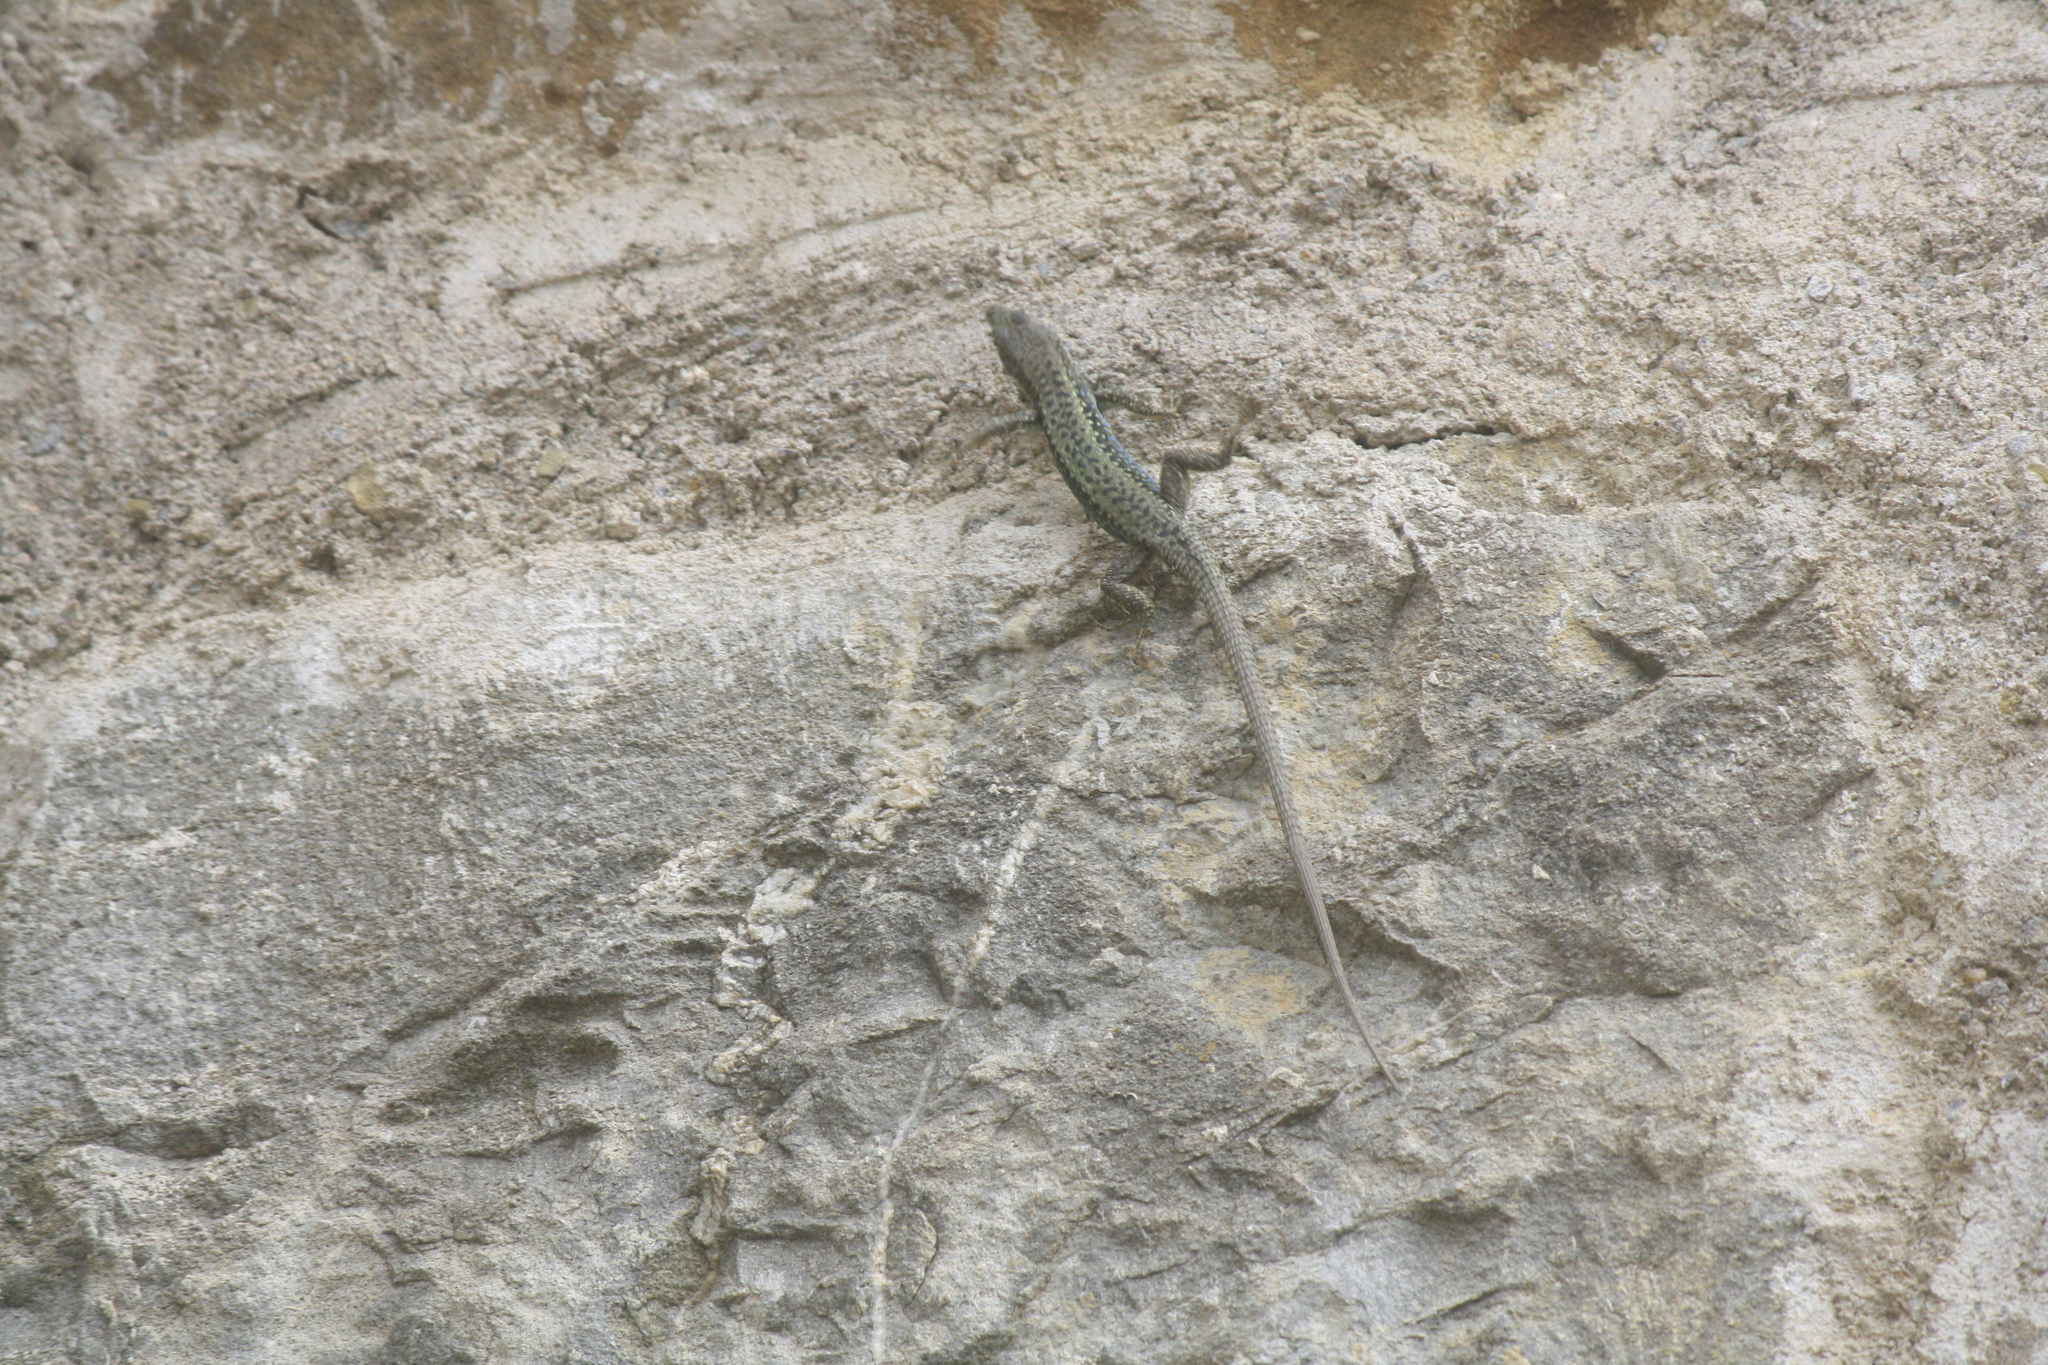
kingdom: Animalia
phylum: Chordata
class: Squamata
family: Lacertidae
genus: Darevskia
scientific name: Darevskia rudis
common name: Spiny-tailed lizard
